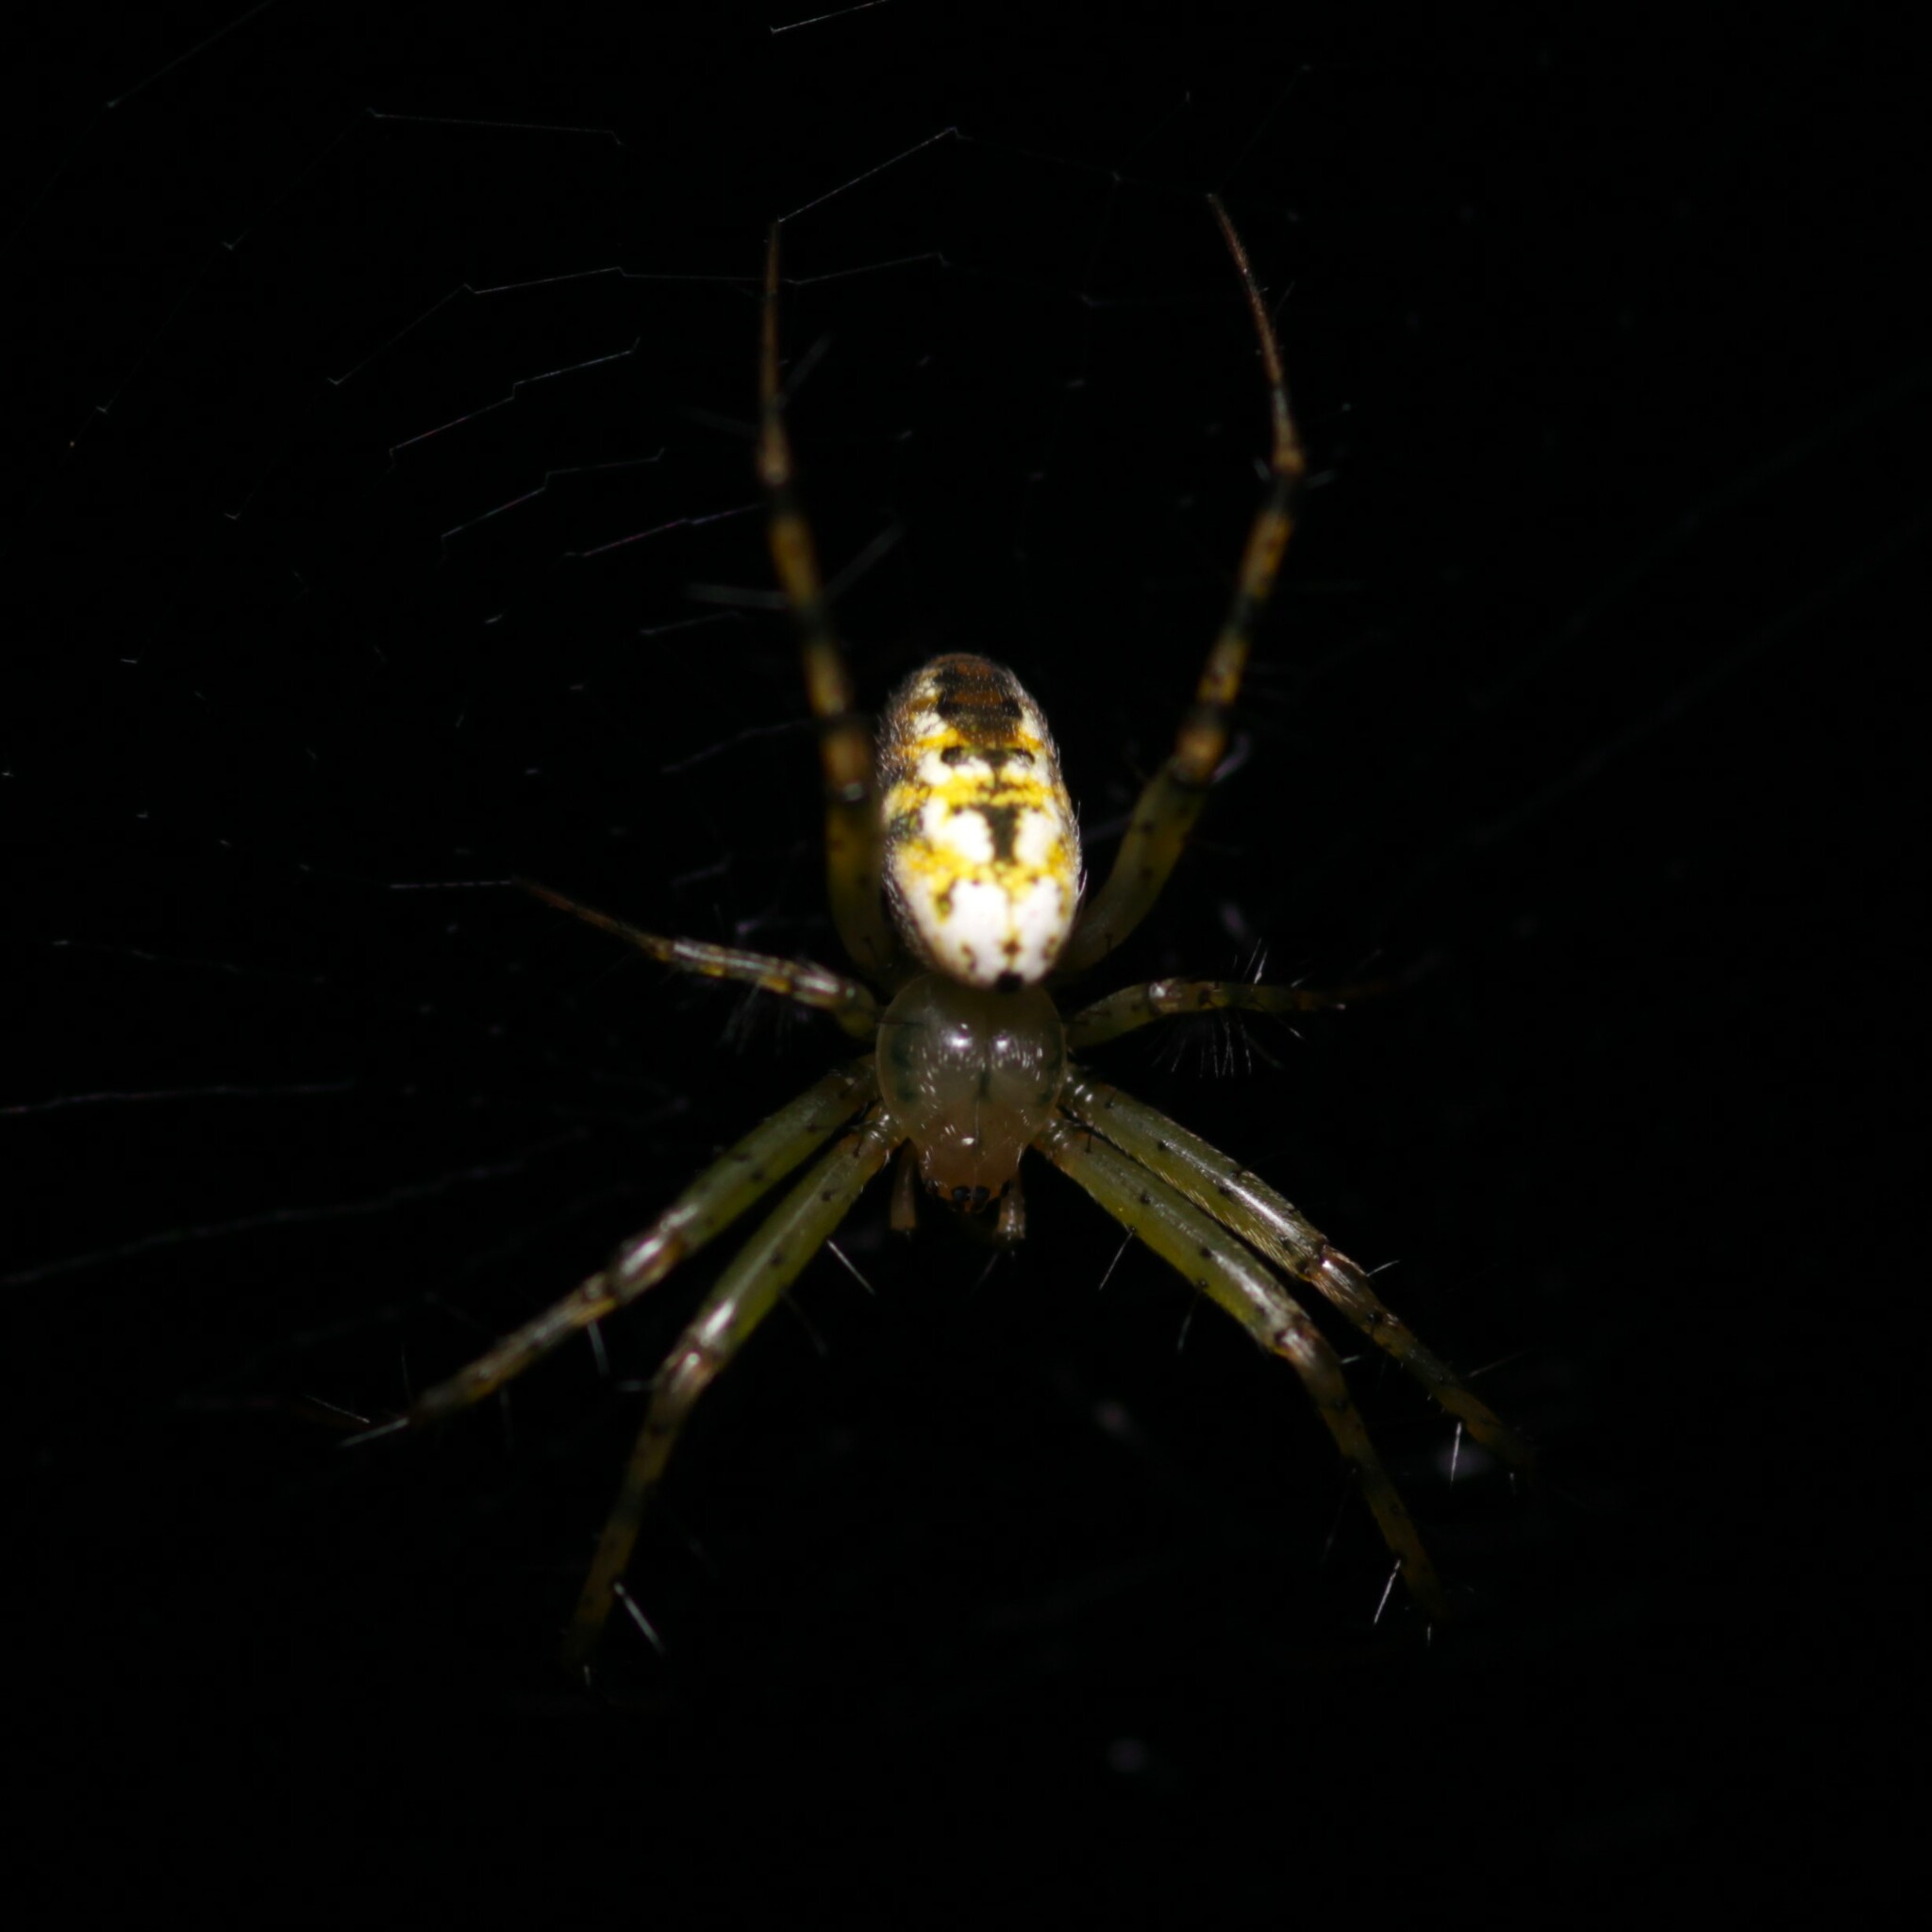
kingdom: Animalia
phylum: Arthropoda
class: Arachnida
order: Araneae
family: Araneidae
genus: Mangora
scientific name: Mangora spiculata
